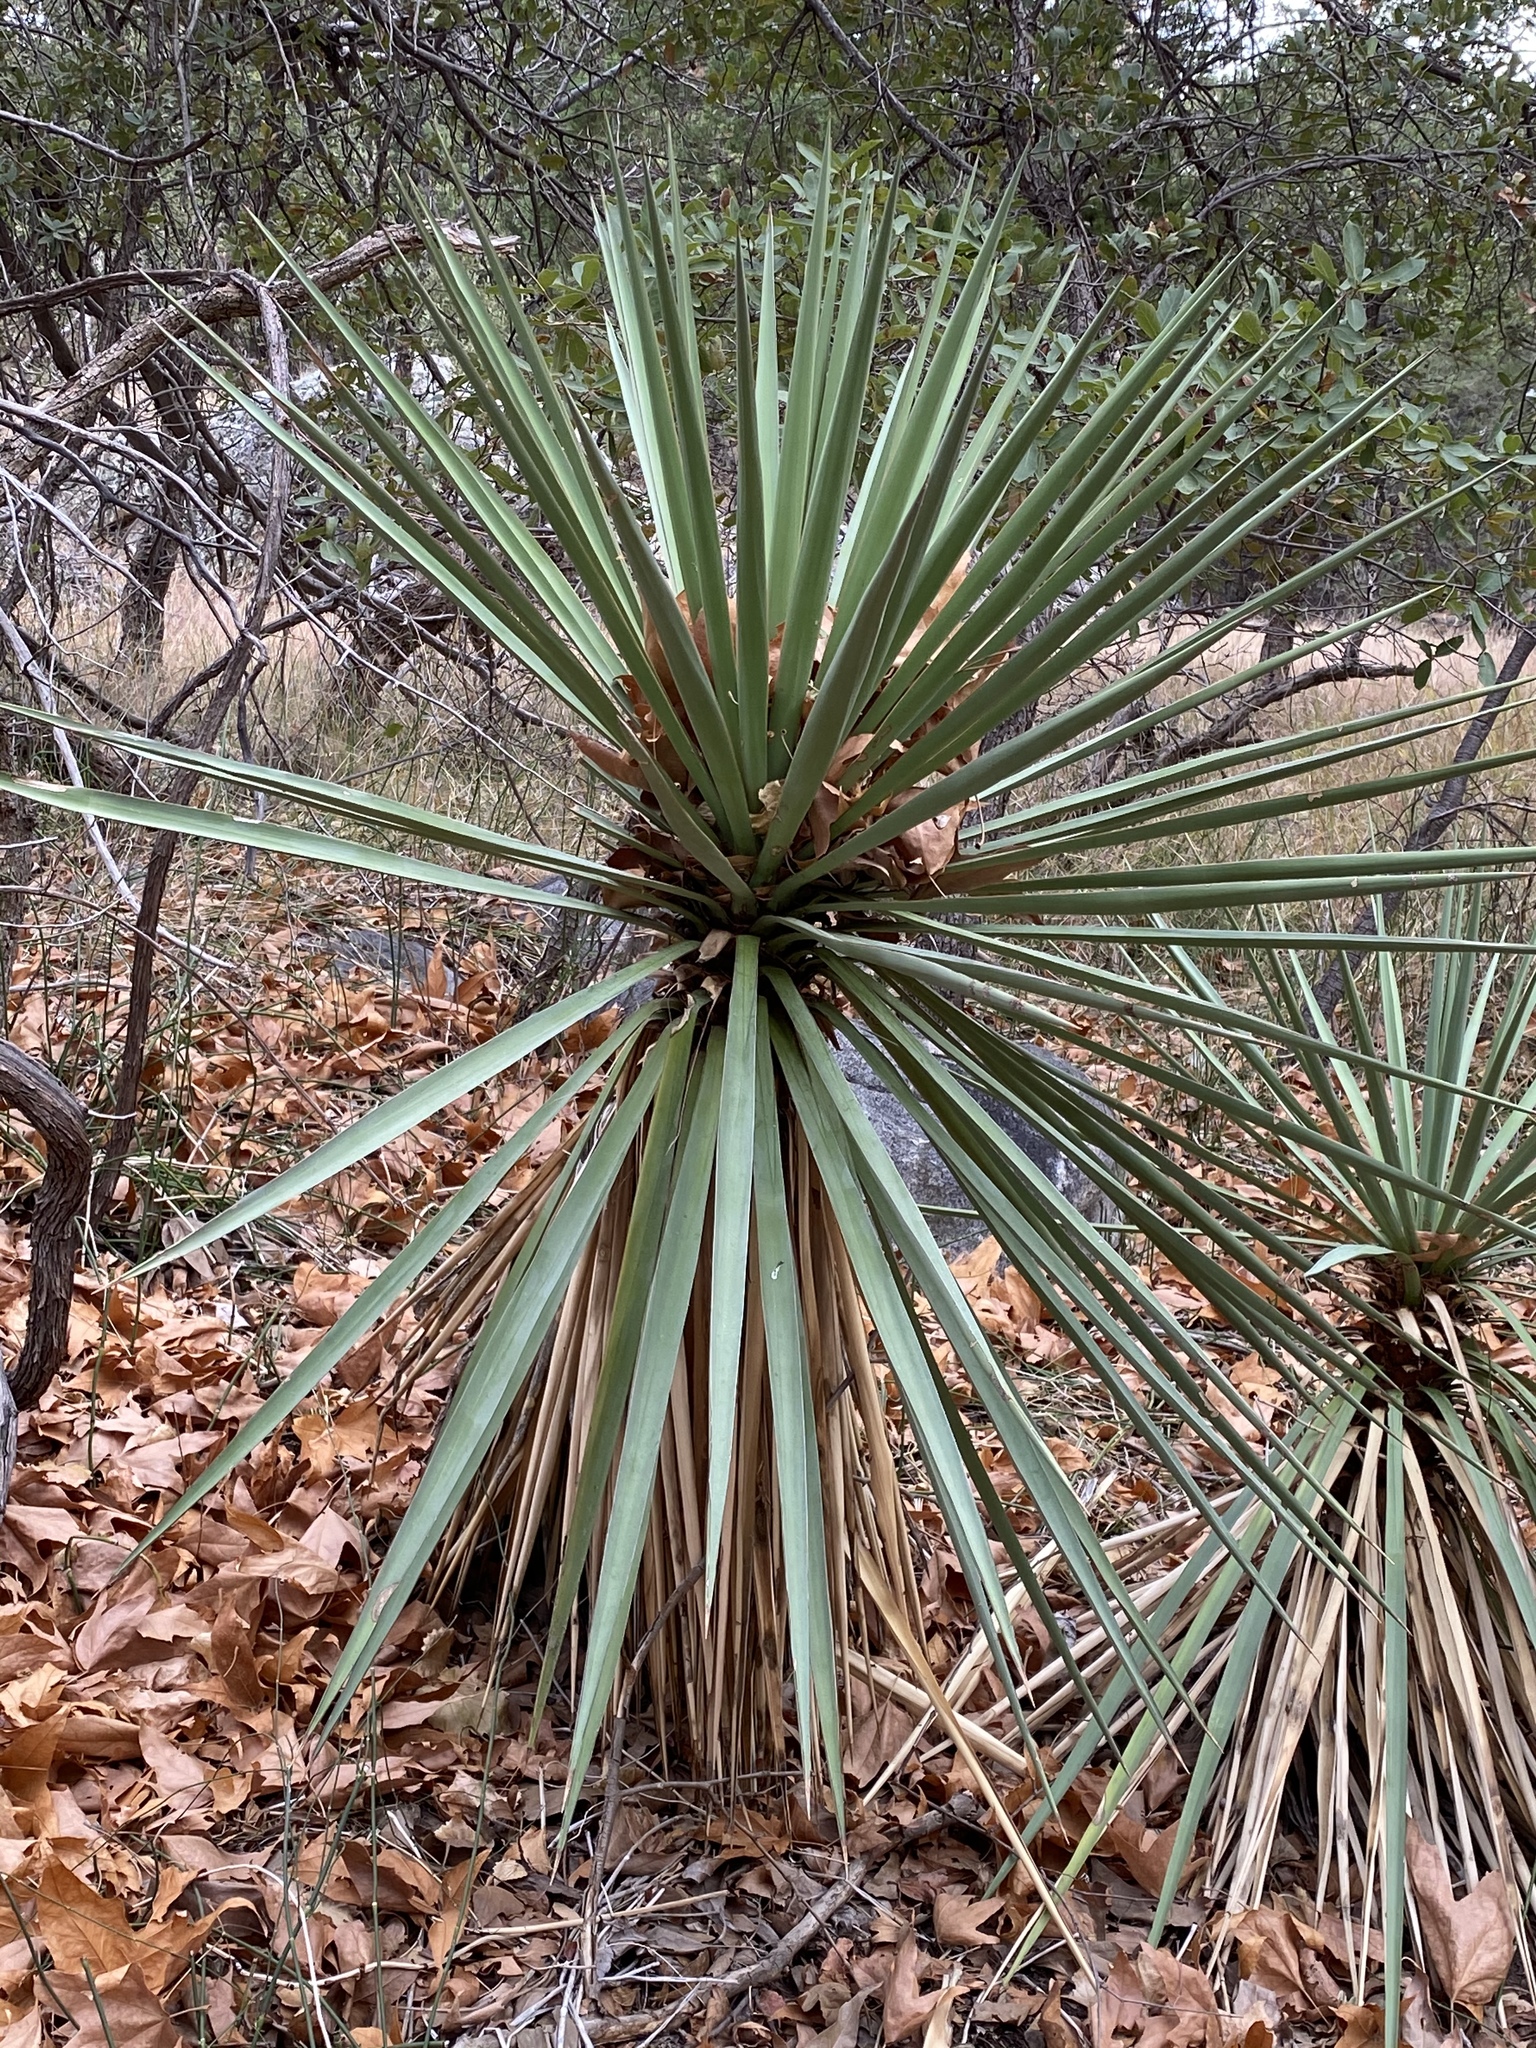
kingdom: Plantae
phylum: Tracheophyta
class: Liliopsida
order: Asparagales
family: Asparagaceae
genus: Yucca
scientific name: Yucca madrensis
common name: Hoary yucca
